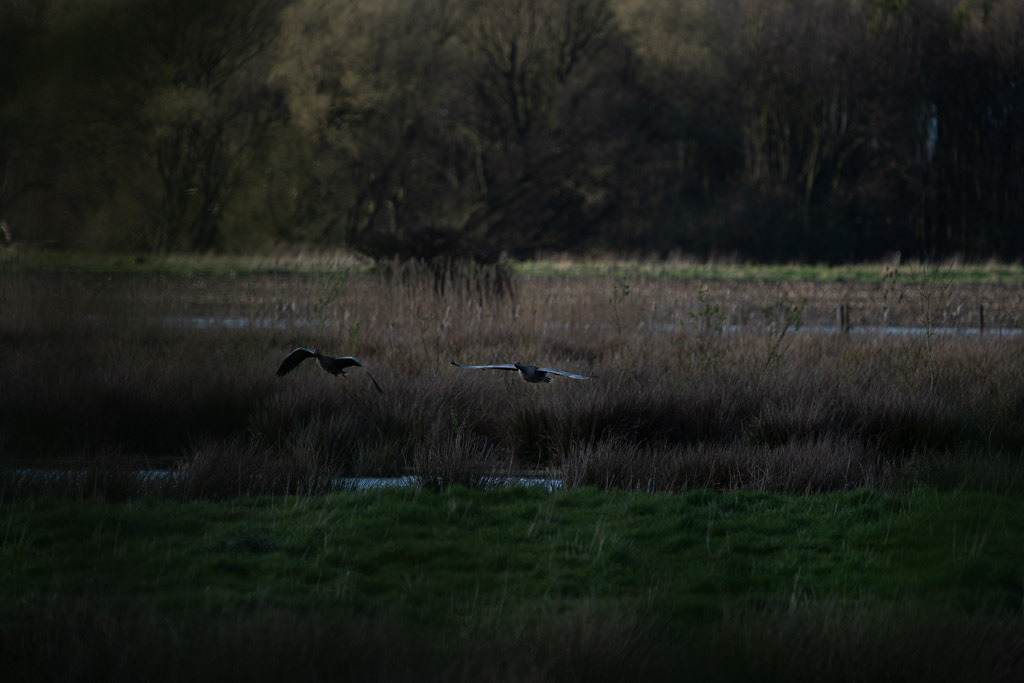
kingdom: Animalia
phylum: Chordata
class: Aves
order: Anseriformes
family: Anatidae
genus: Anser
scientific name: Anser anser
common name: Greylag goose
